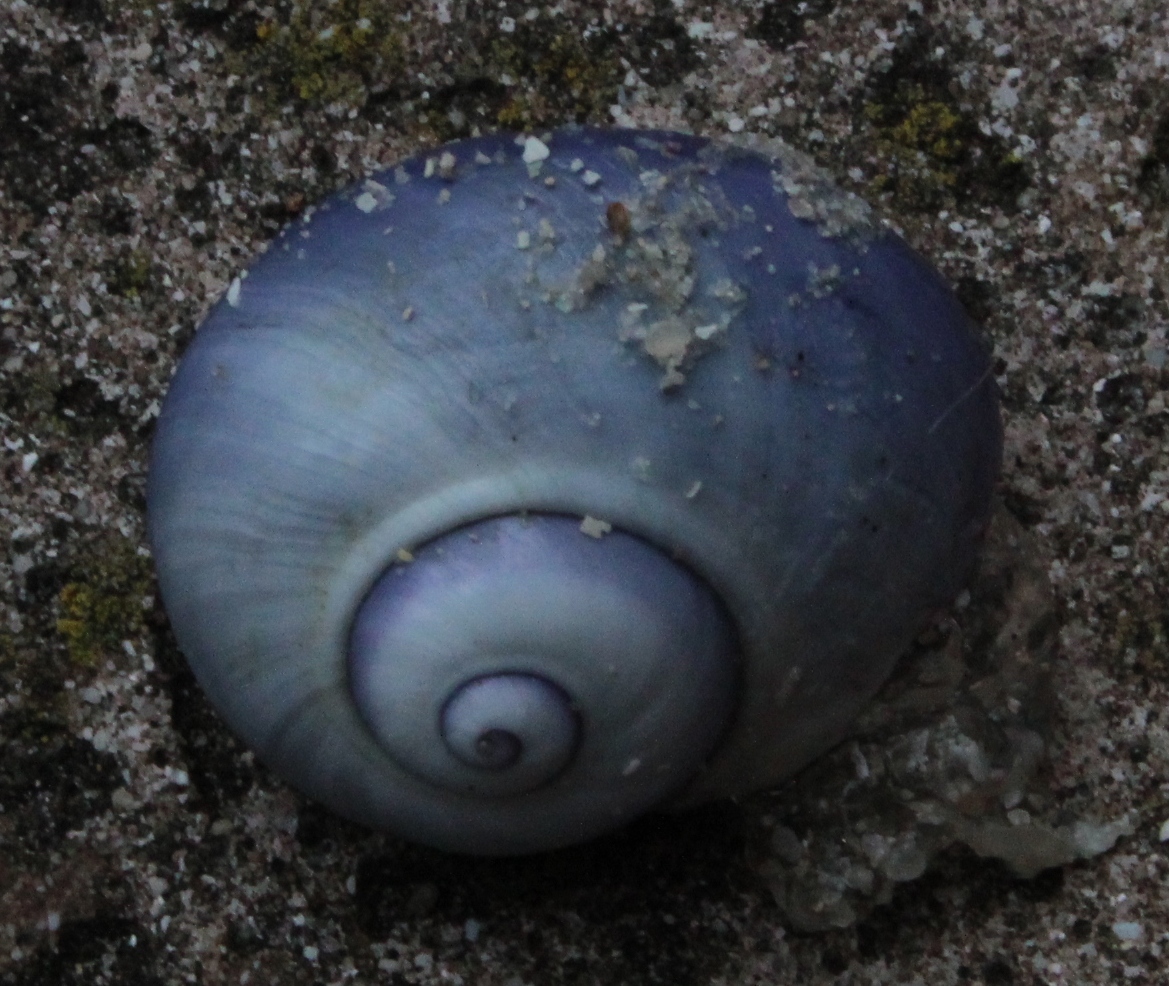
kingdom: Animalia
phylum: Mollusca
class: Gastropoda
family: Epitoniidae
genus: Janthina
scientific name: Janthina janthina
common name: Common janthina
